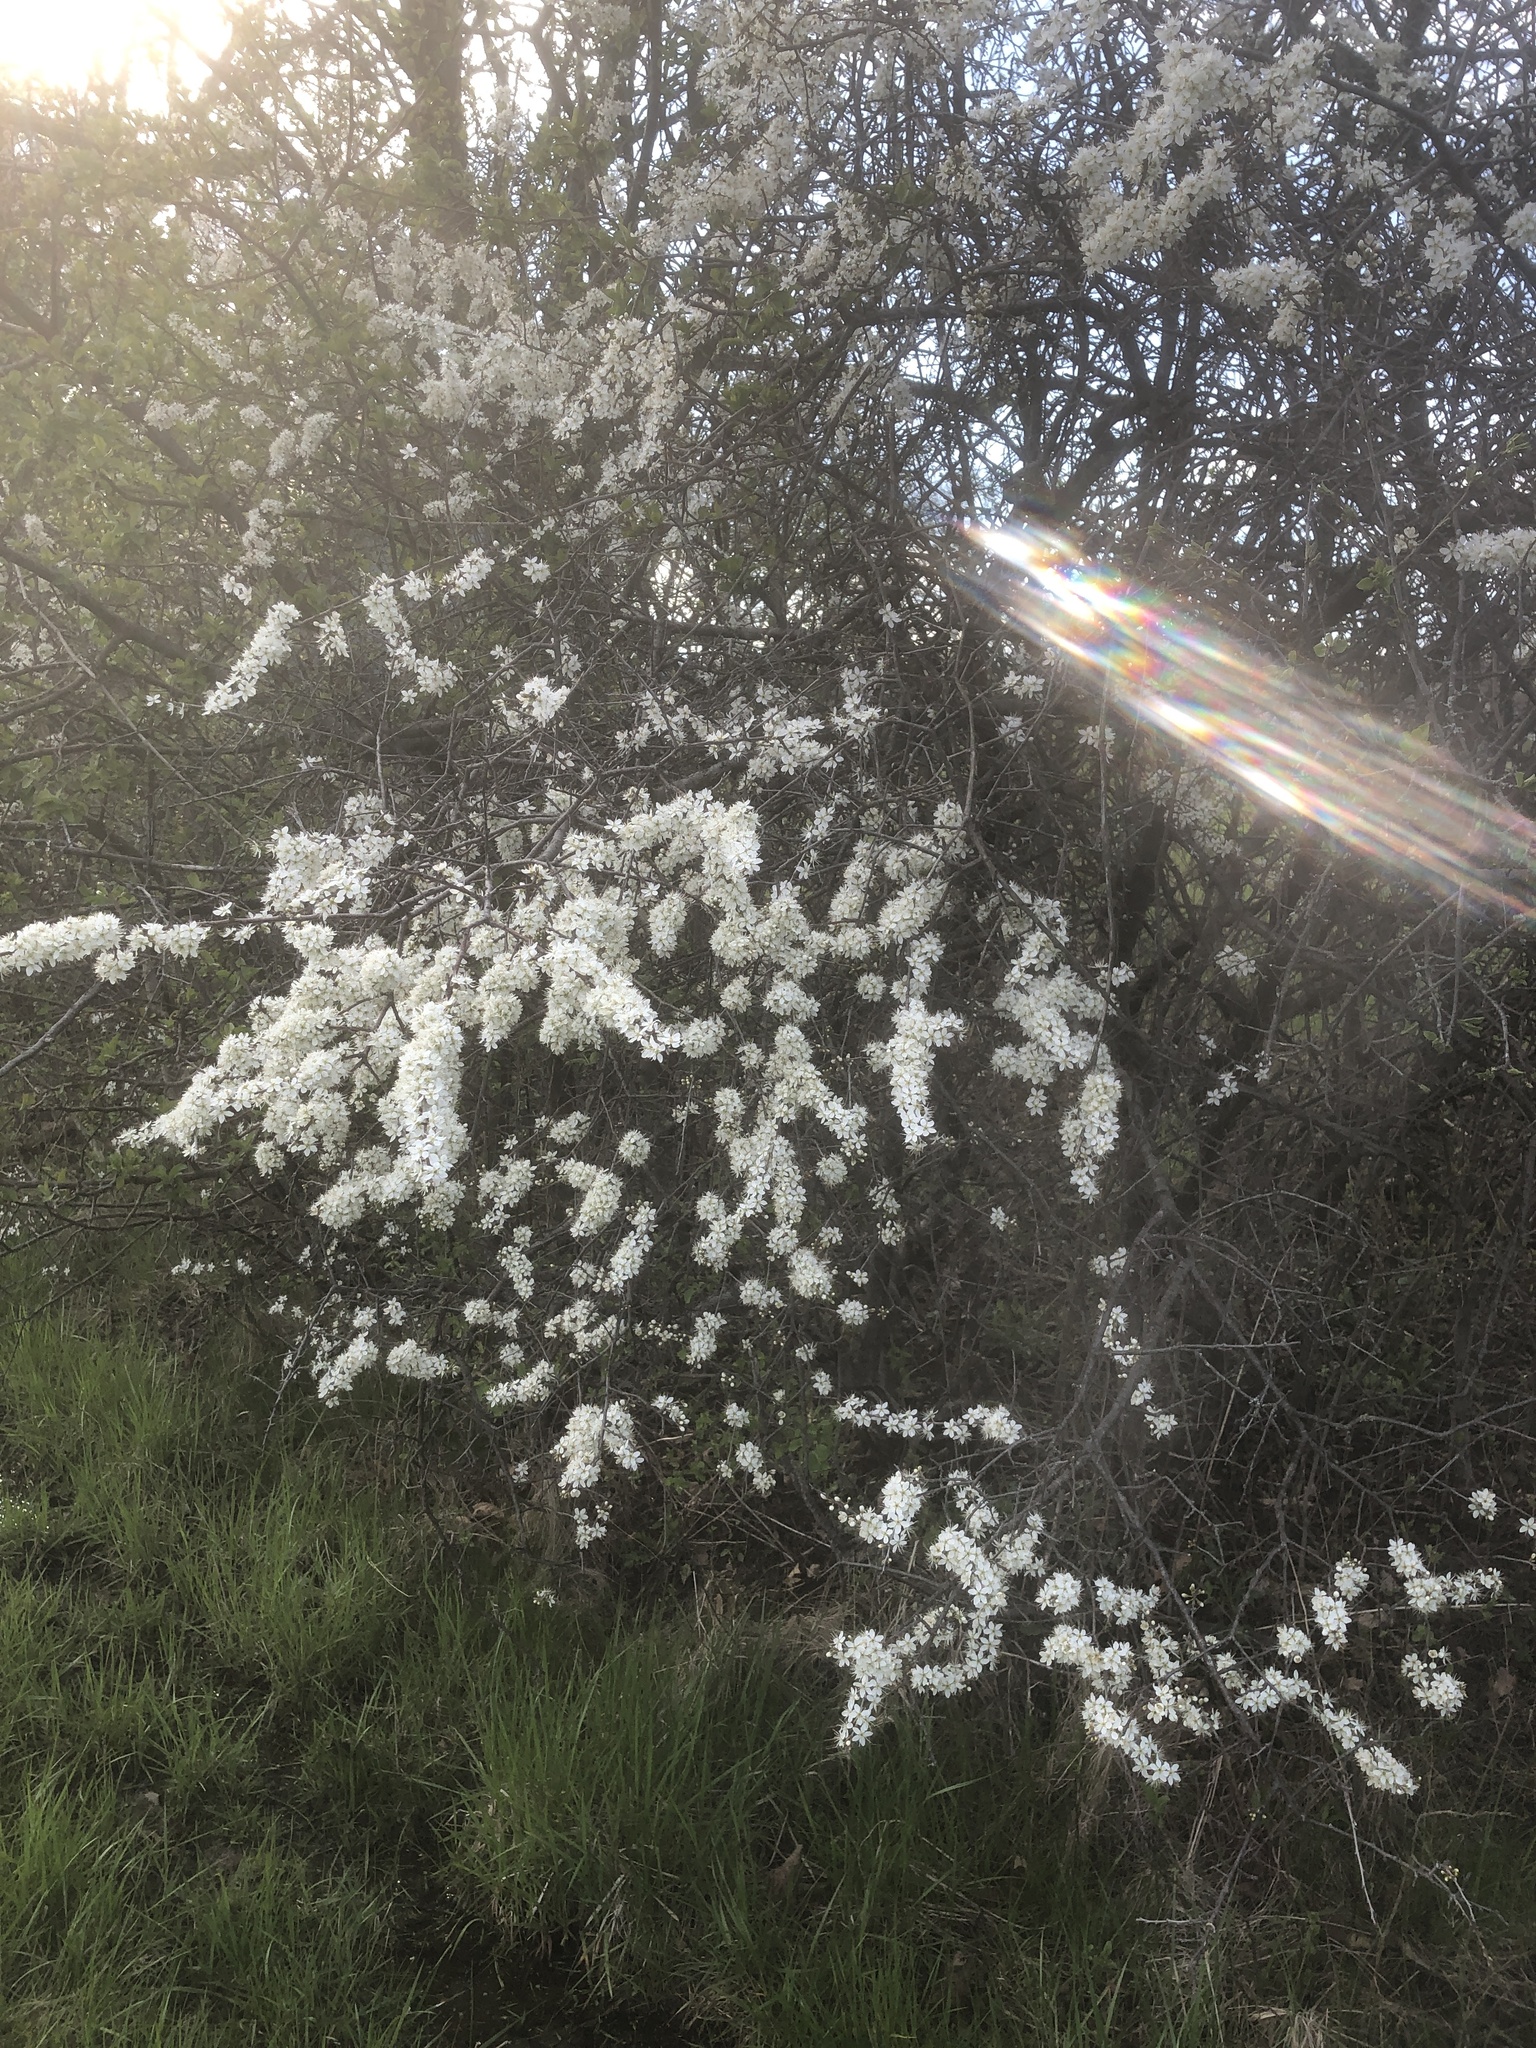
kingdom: Plantae
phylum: Tracheophyta
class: Magnoliopsida
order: Rosales
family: Rosaceae
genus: Prunus
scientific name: Prunus americana
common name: American plum
